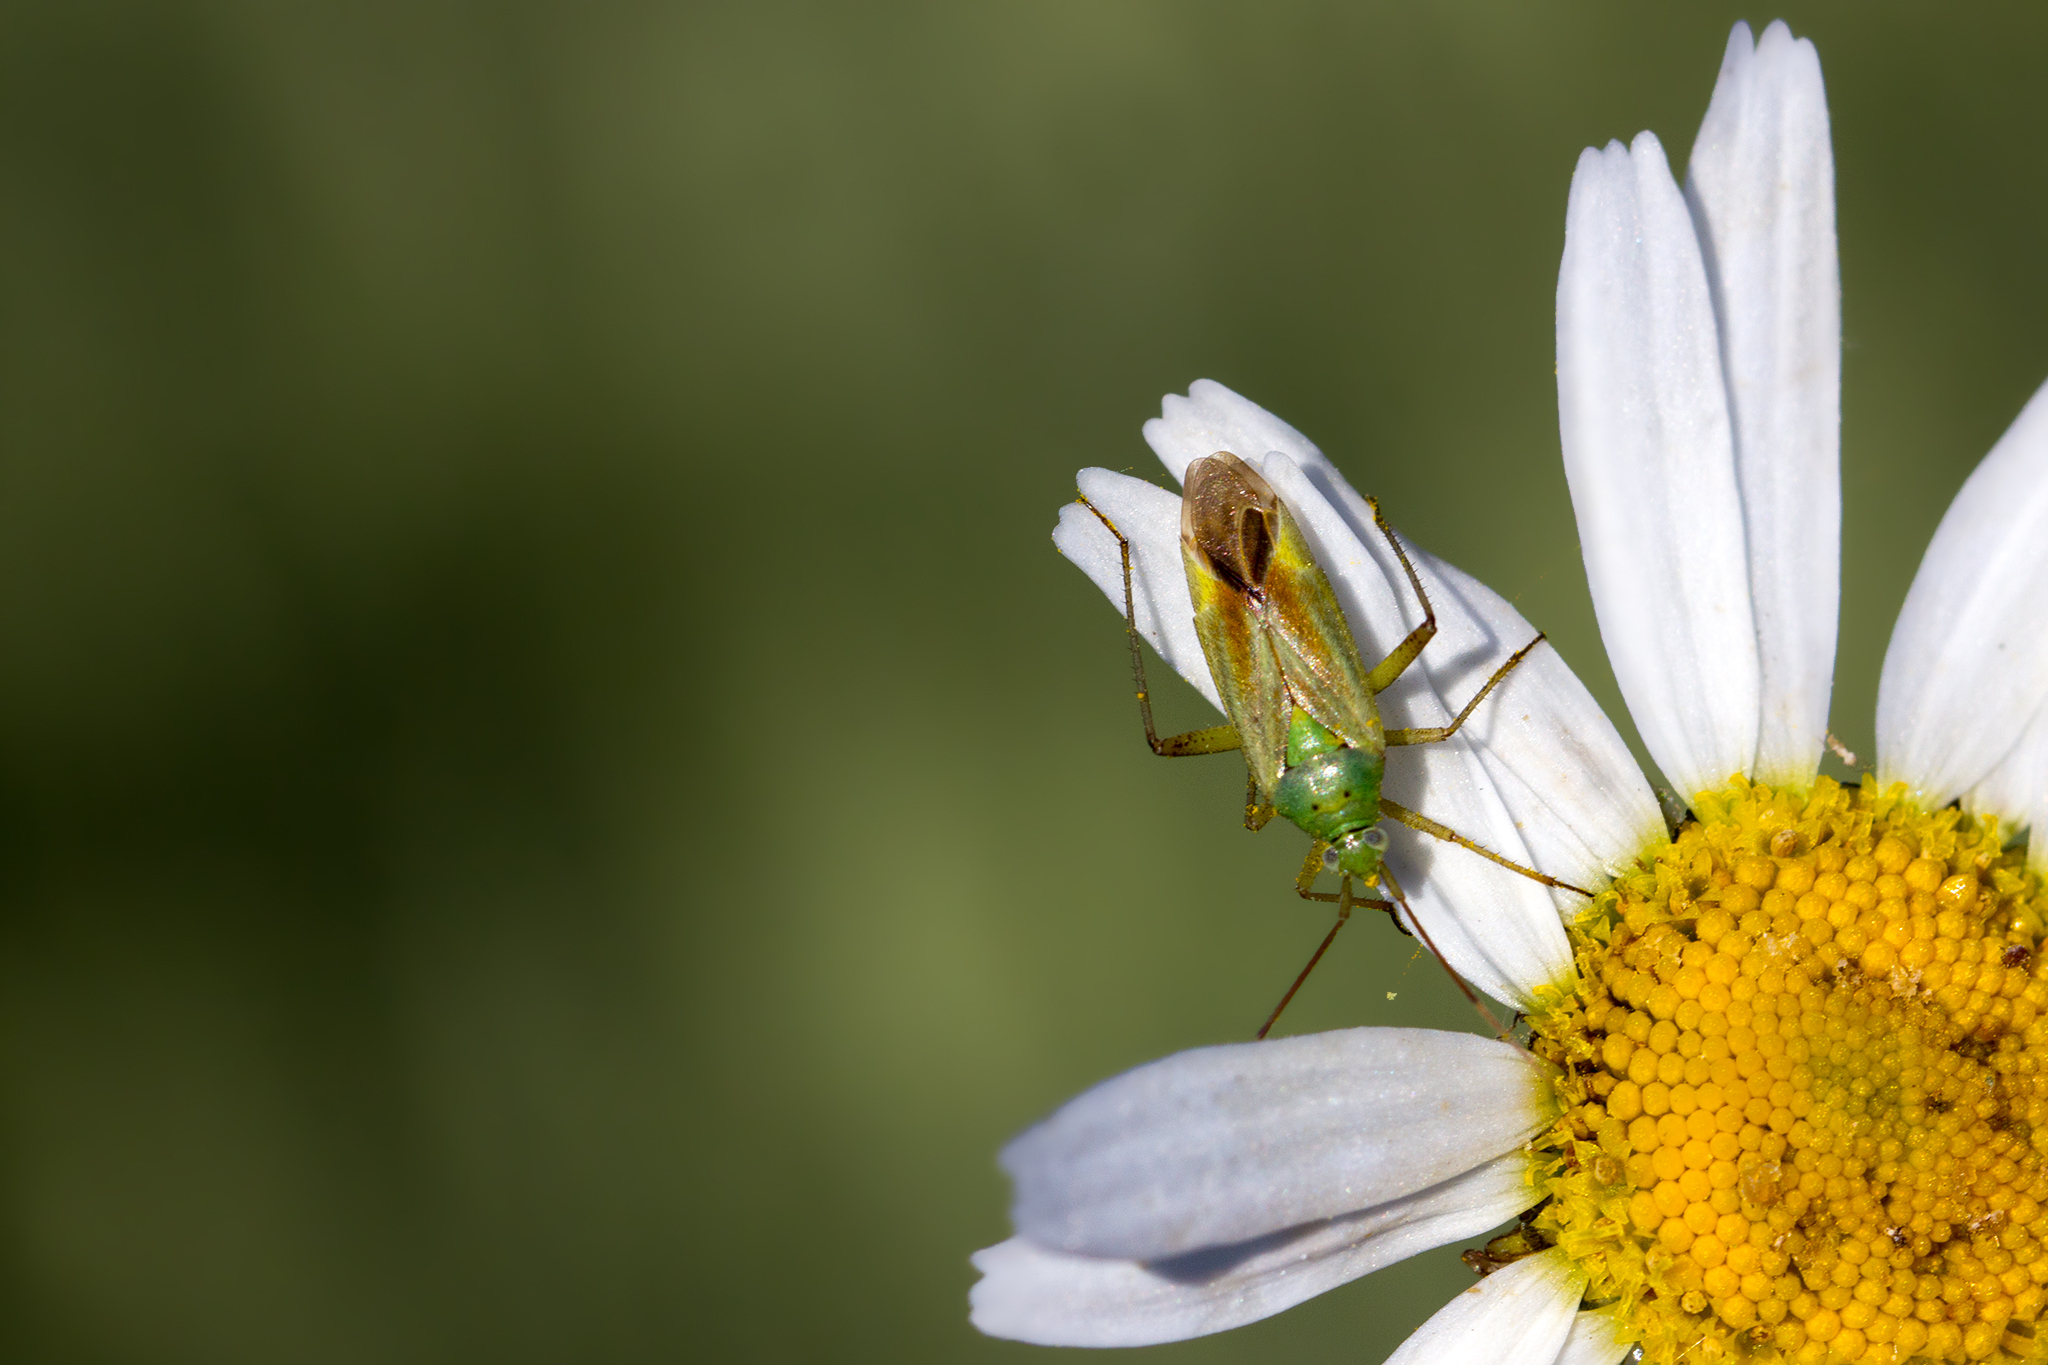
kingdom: Animalia
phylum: Arthropoda
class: Insecta
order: Hemiptera
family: Miridae
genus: Closterotomus
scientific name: Closterotomus norvegicus
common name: Plant bug
